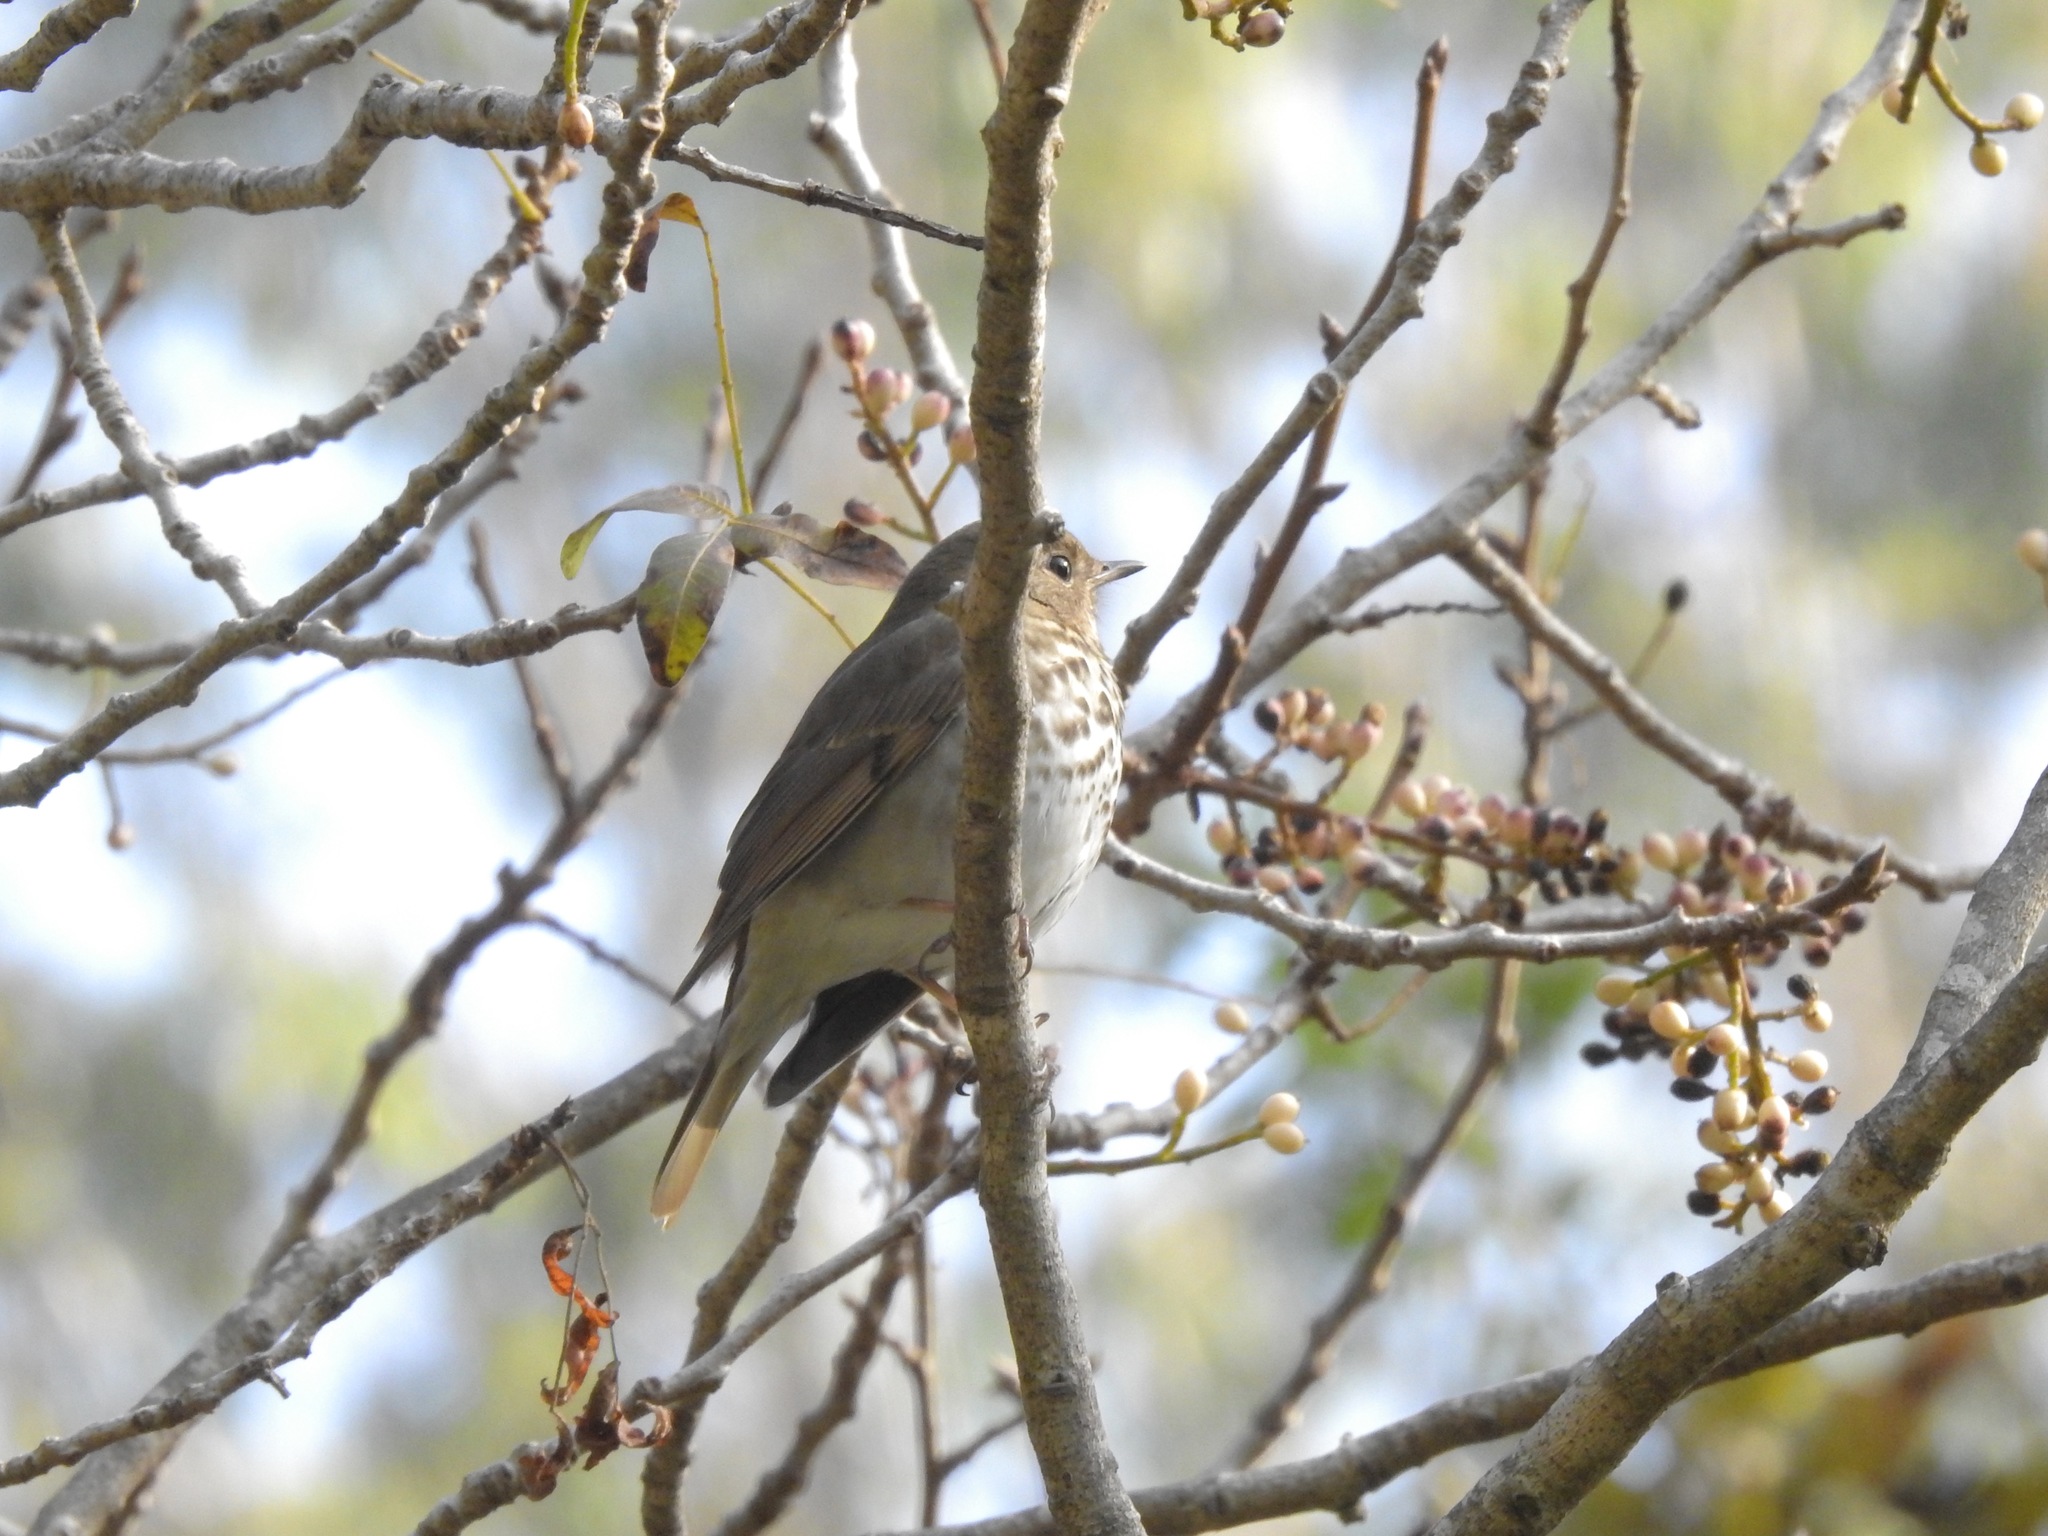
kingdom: Animalia
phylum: Chordata
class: Aves
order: Passeriformes
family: Turdidae
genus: Catharus
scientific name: Catharus guttatus
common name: Hermit thrush
